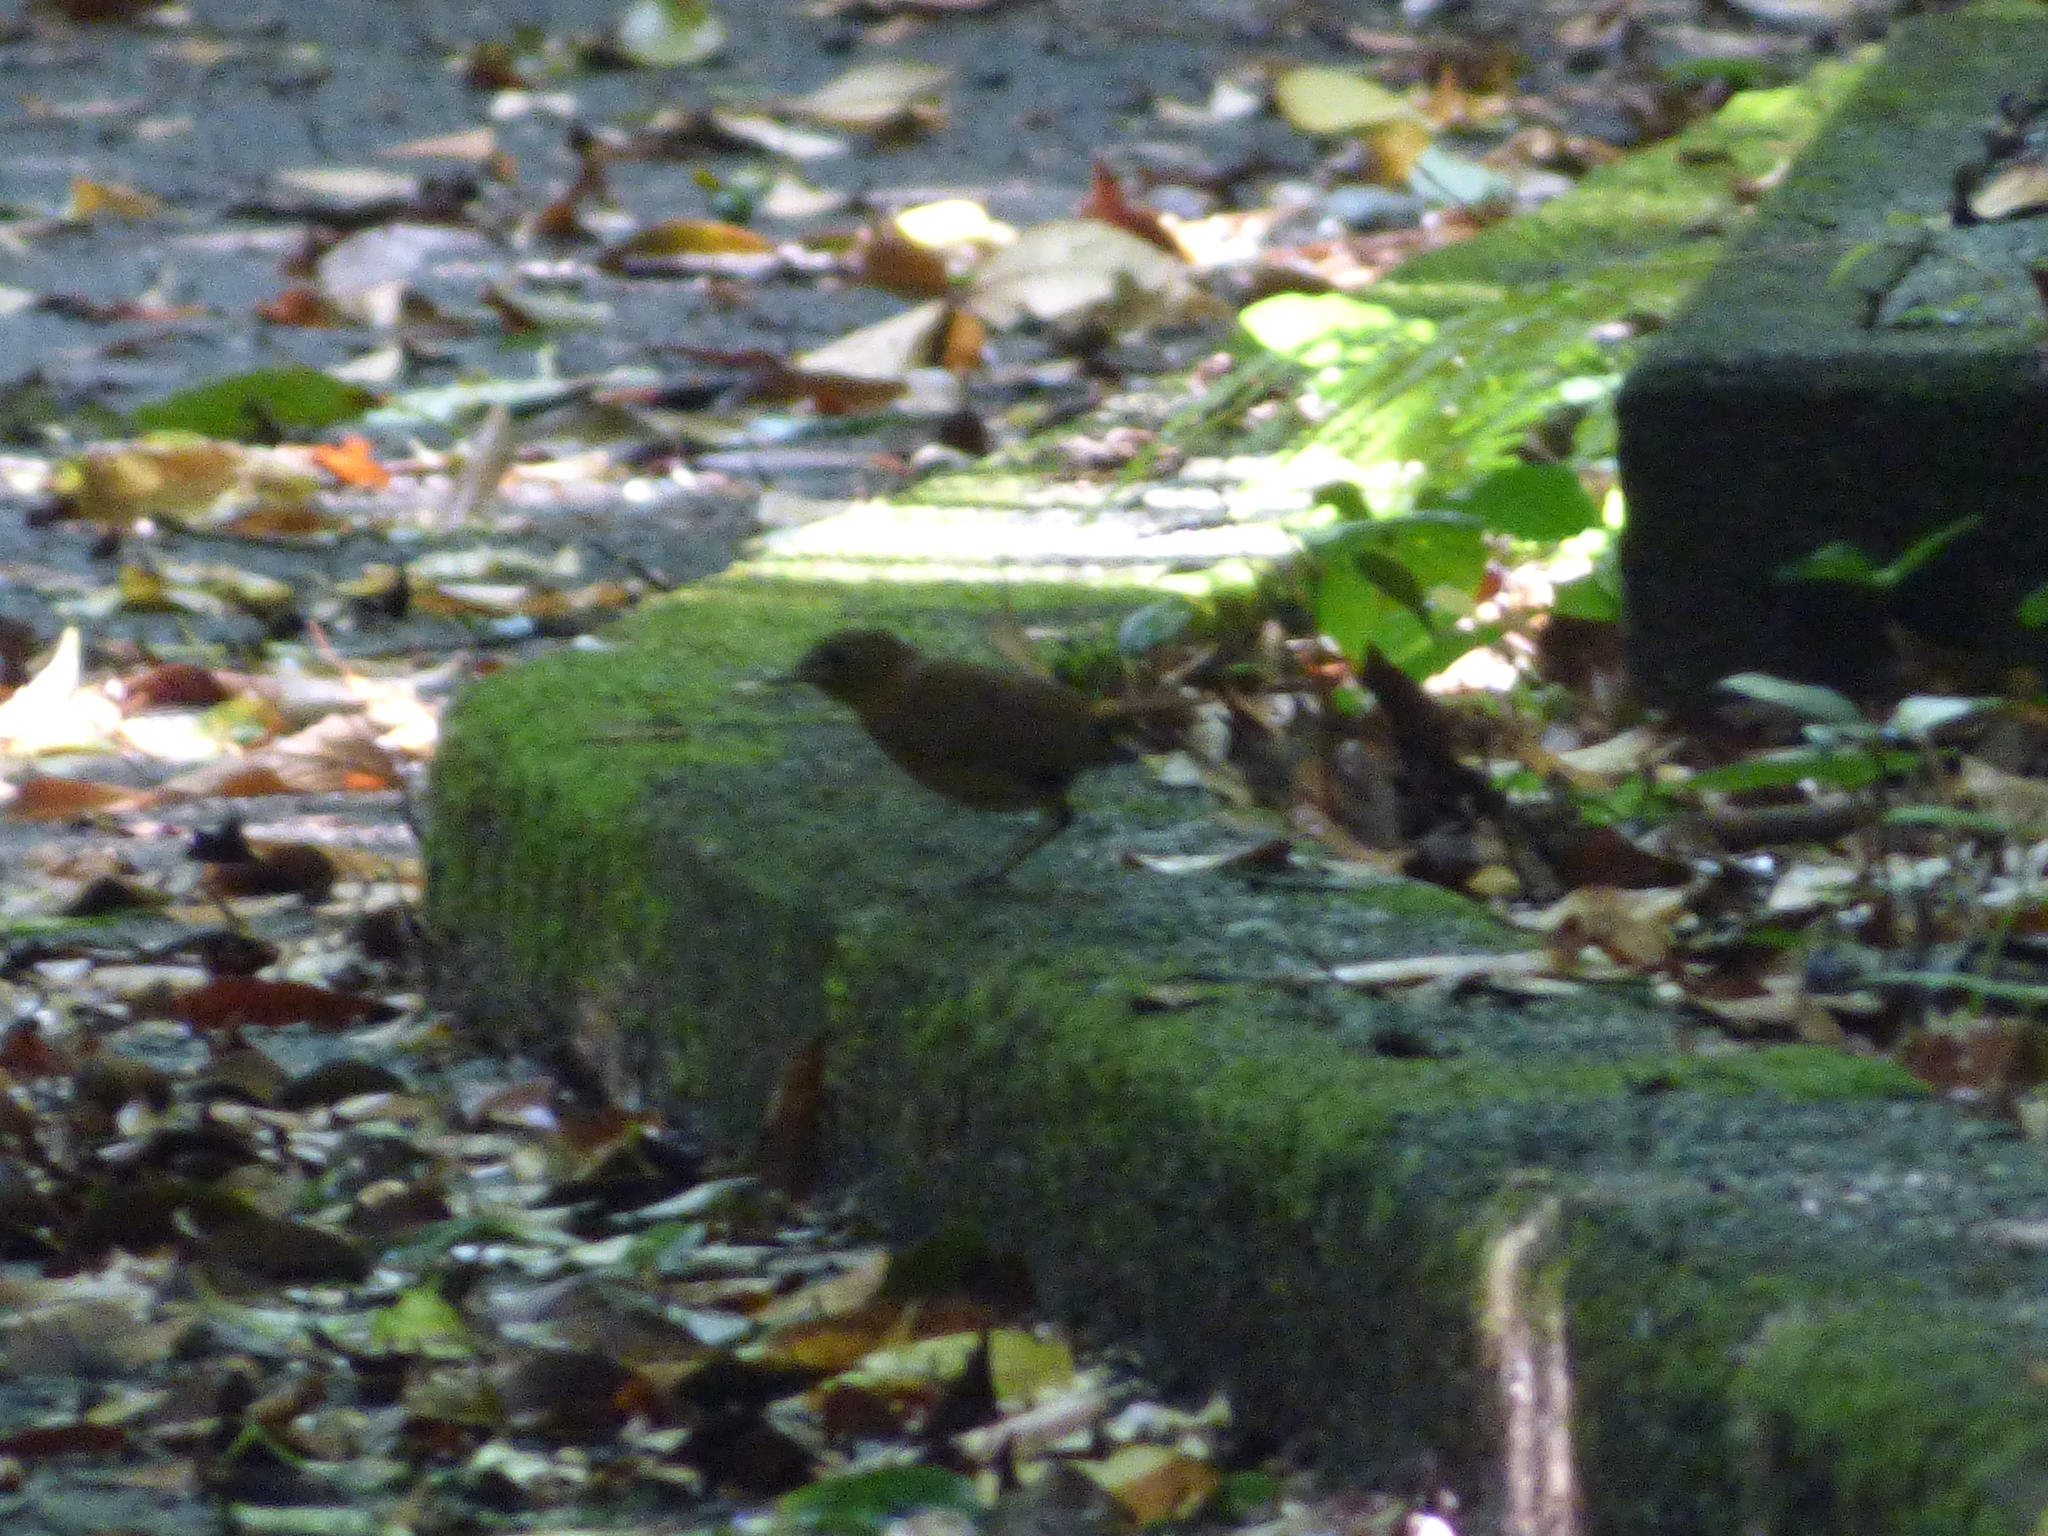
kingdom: Animalia
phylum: Chordata
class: Aves
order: Passeriformes
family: Muscicapidae
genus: Erithacus
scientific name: Erithacus akahige
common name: Japanese robin
